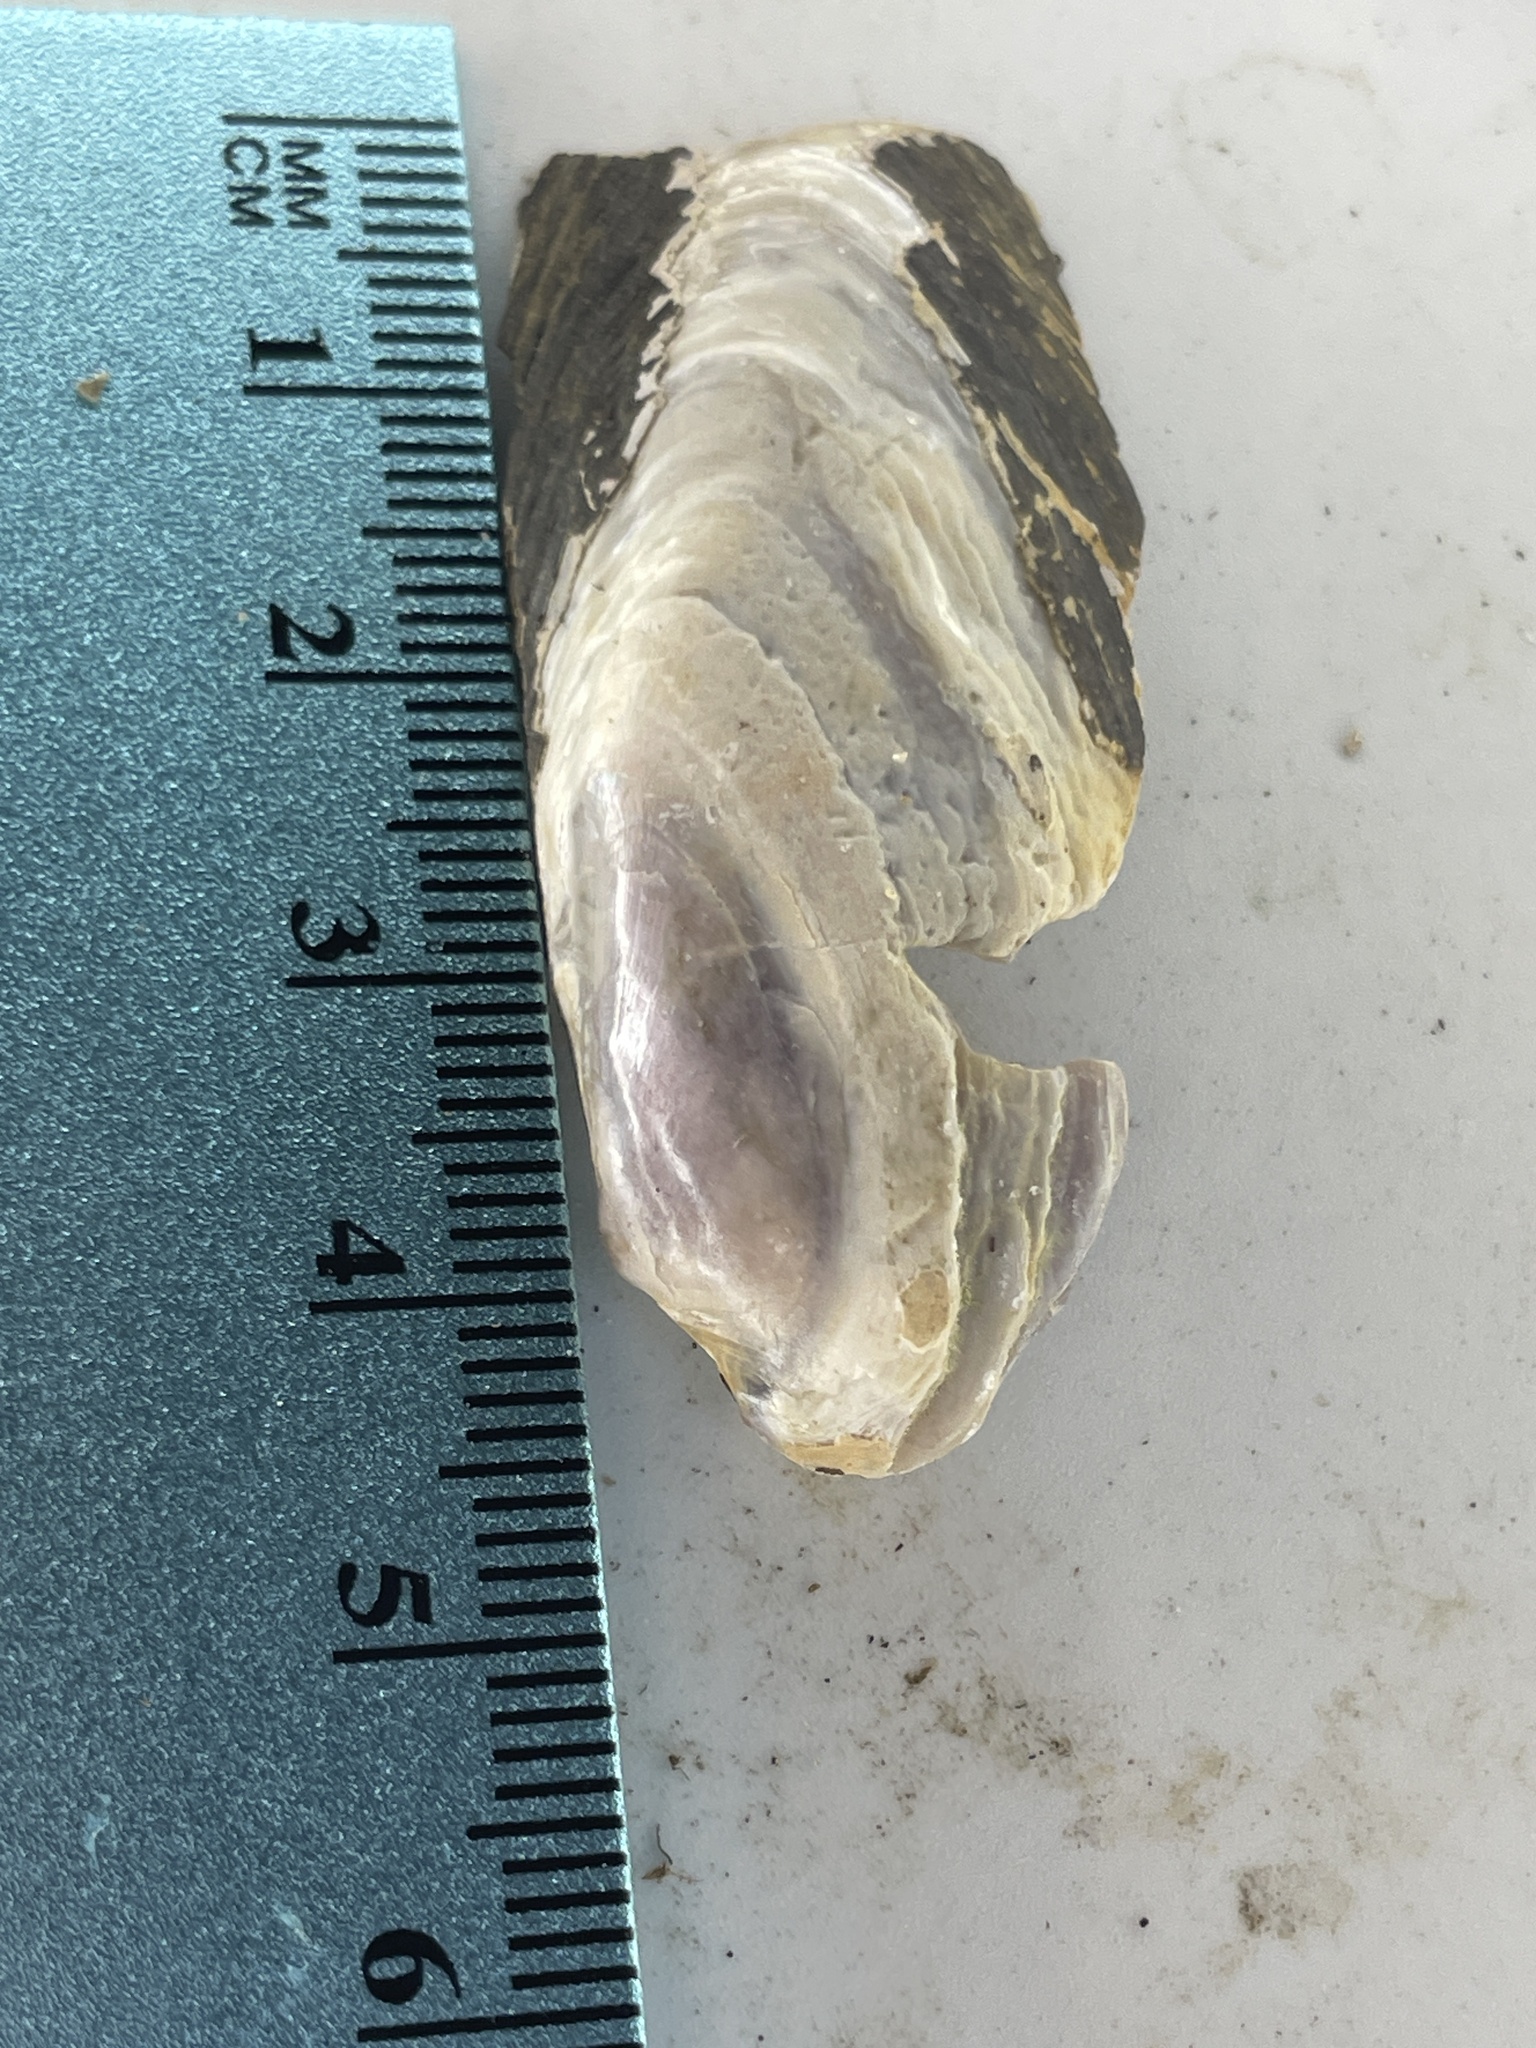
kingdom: Animalia
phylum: Mollusca
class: Bivalvia
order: Unionida
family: Unionidae
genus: Eurynia
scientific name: Eurynia dilatata
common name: Spike
